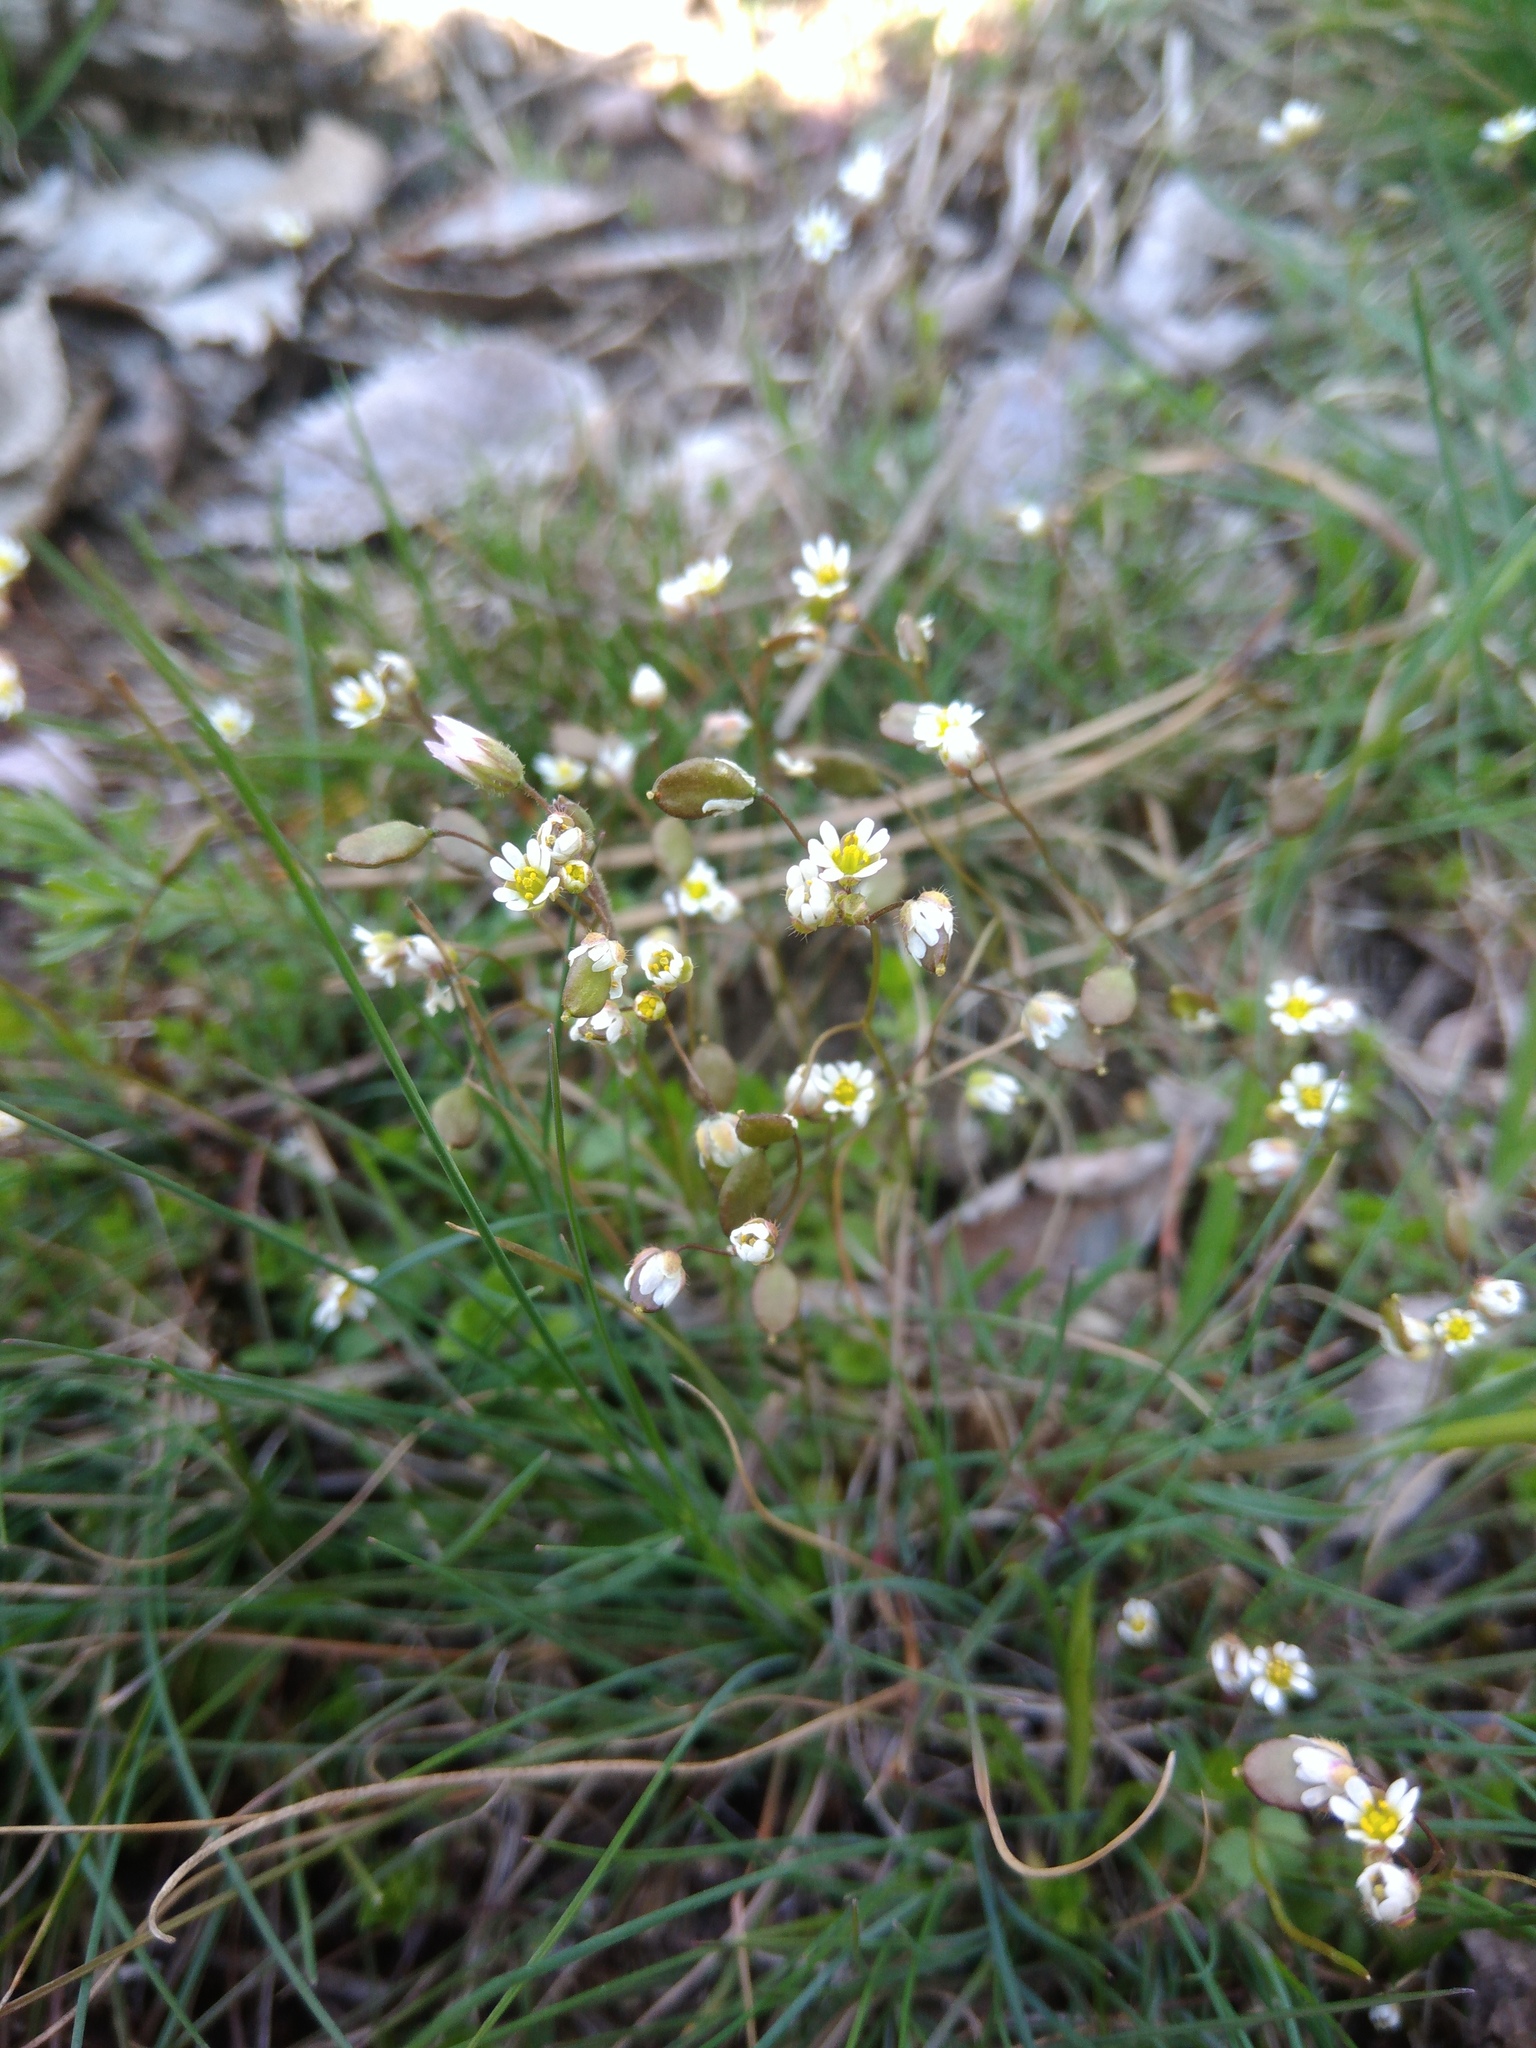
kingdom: Plantae
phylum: Tracheophyta
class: Magnoliopsida
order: Brassicales
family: Brassicaceae
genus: Draba
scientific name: Draba verna
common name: Spring draba
